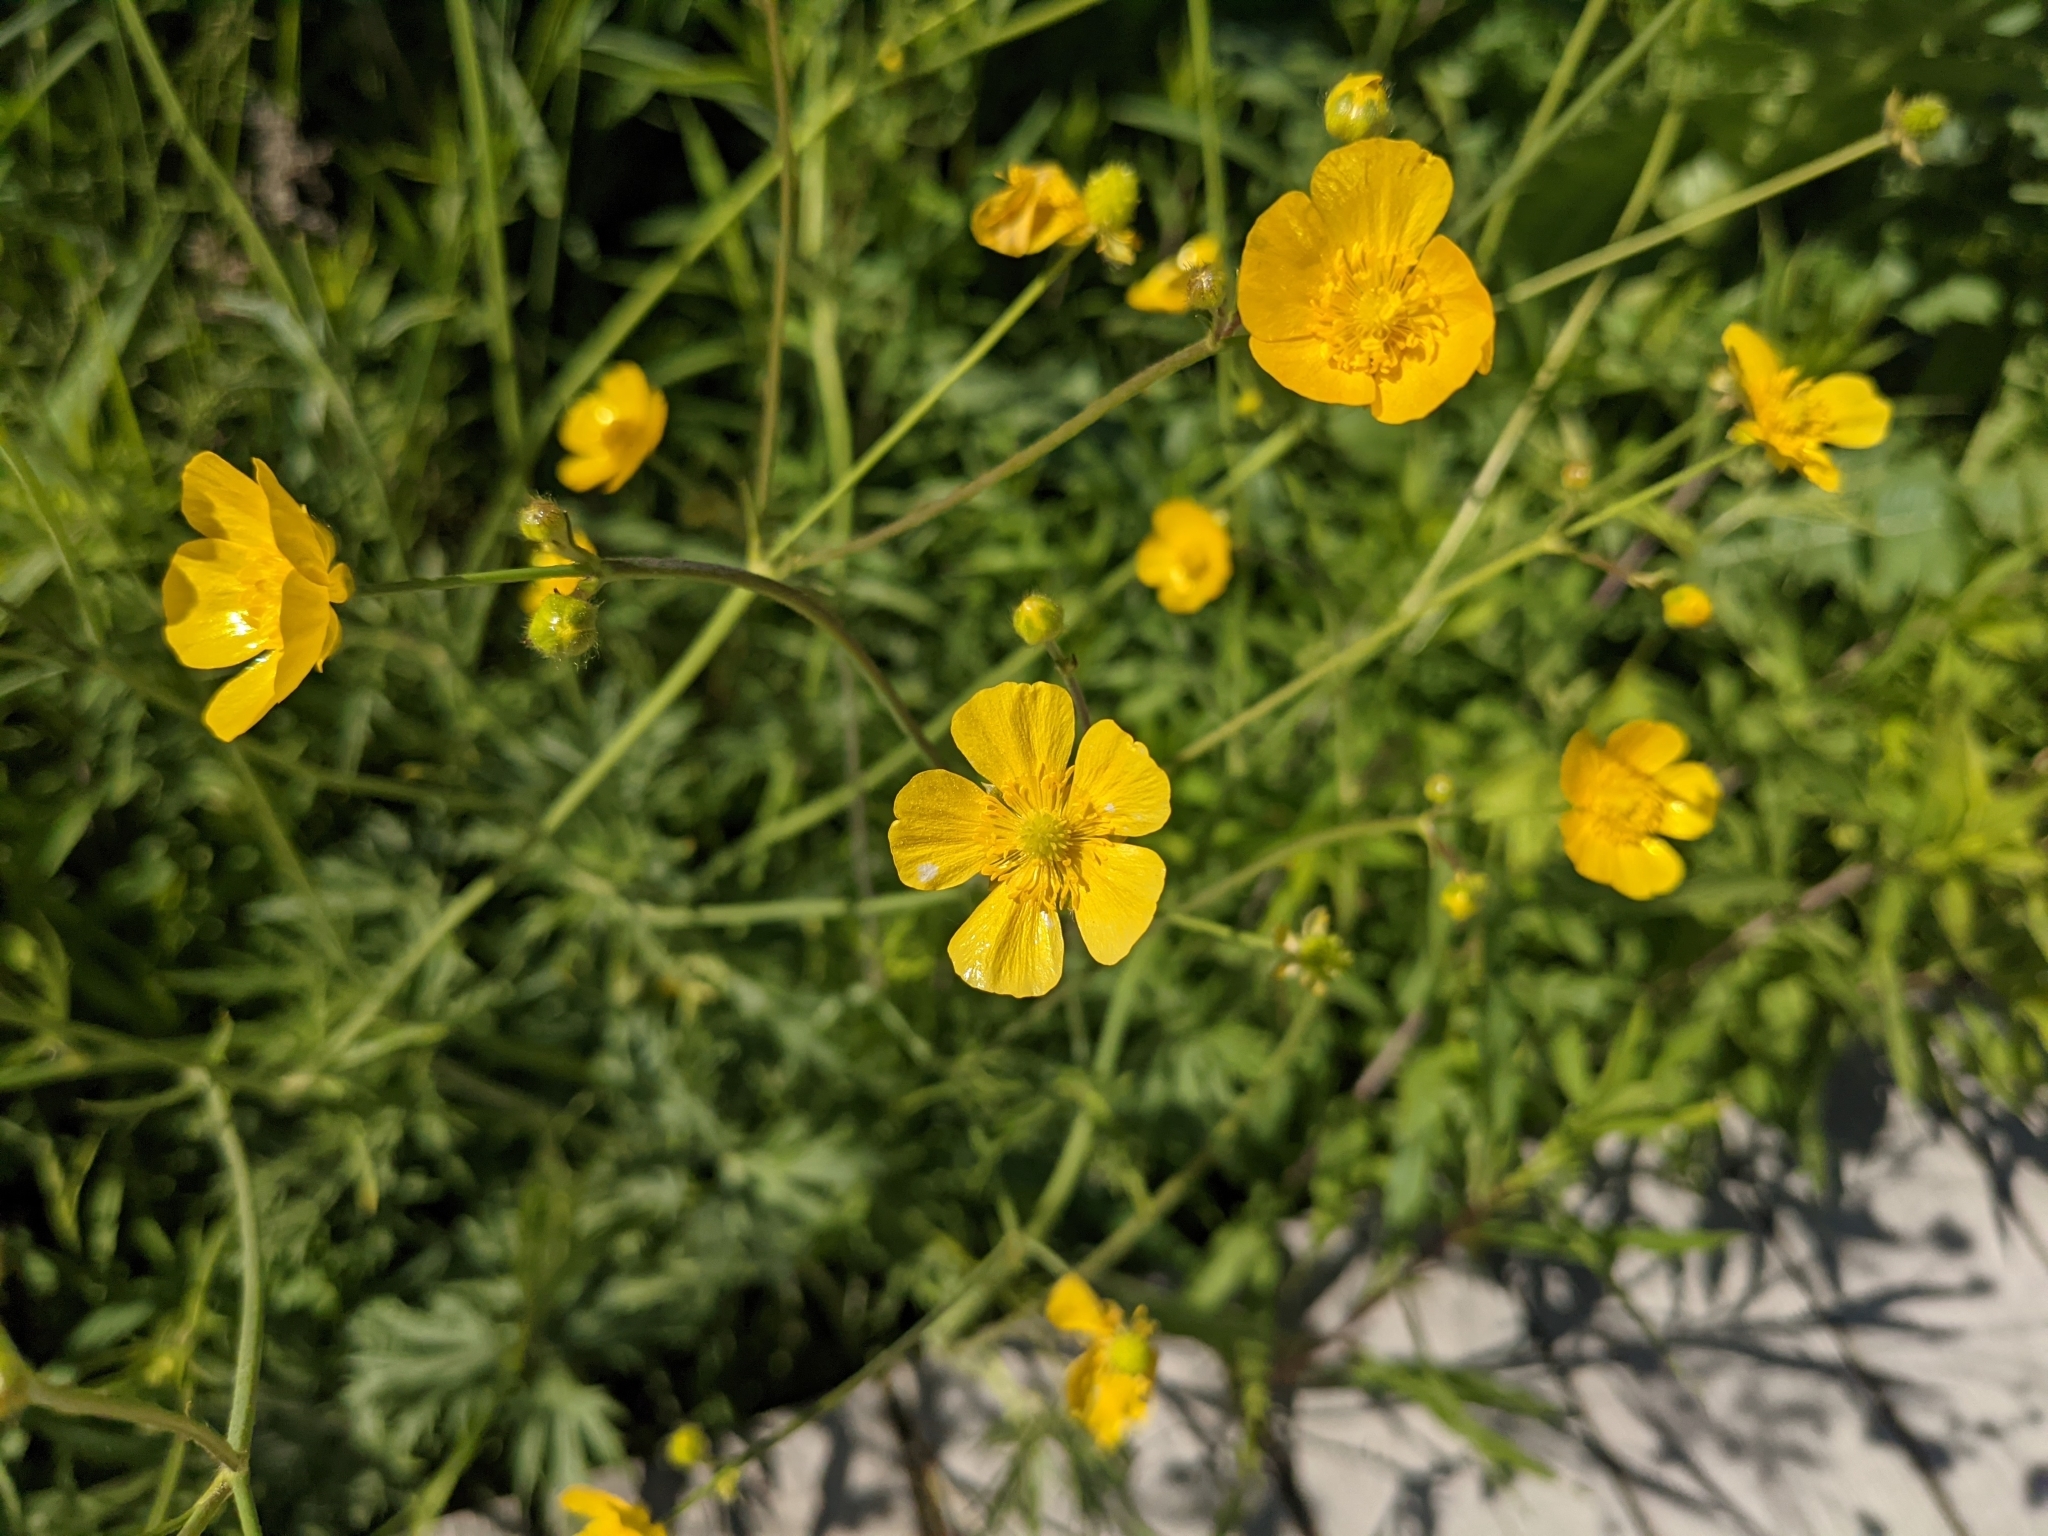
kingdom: Plantae
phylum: Tracheophyta
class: Magnoliopsida
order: Ranunculales
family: Ranunculaceae
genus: Ranunculus
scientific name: Ranunculus acris
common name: Meadow buttercup
